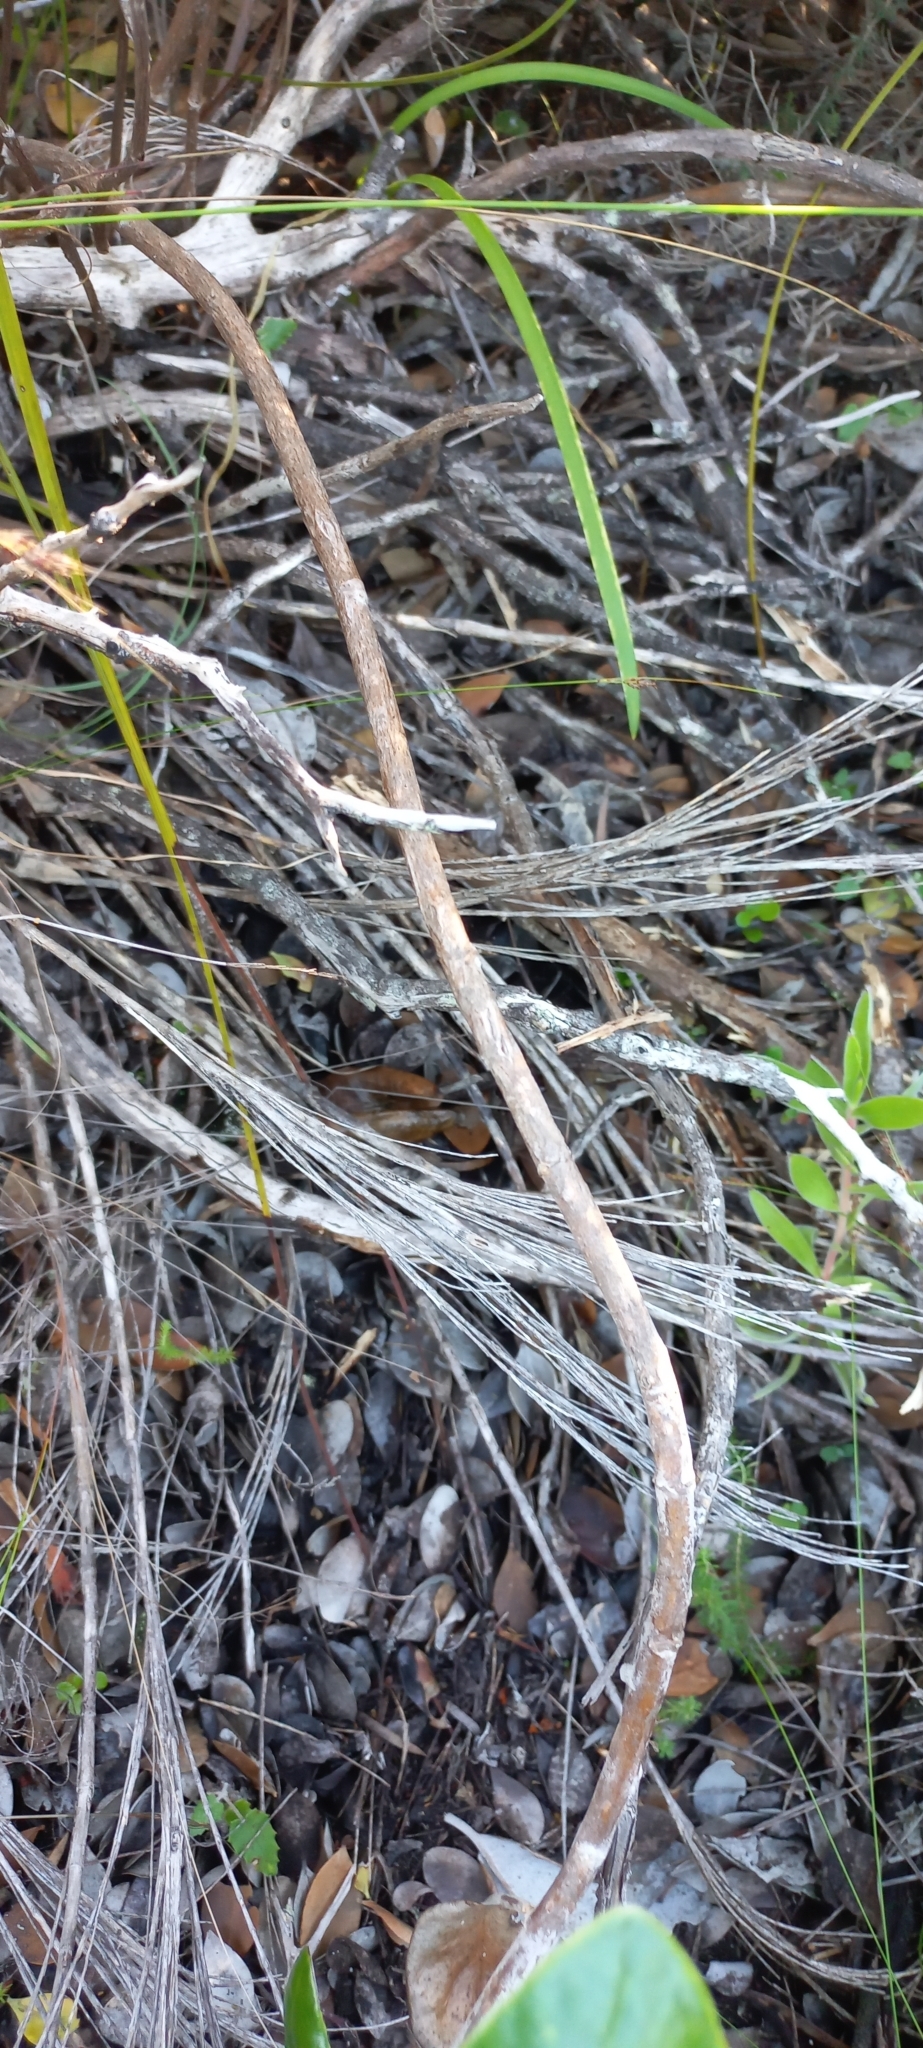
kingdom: Plantae
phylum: Tracheophyta
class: Magnoliopsida
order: Asterales
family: Asteraceae
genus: Capelio
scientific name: Capelio tabularis
